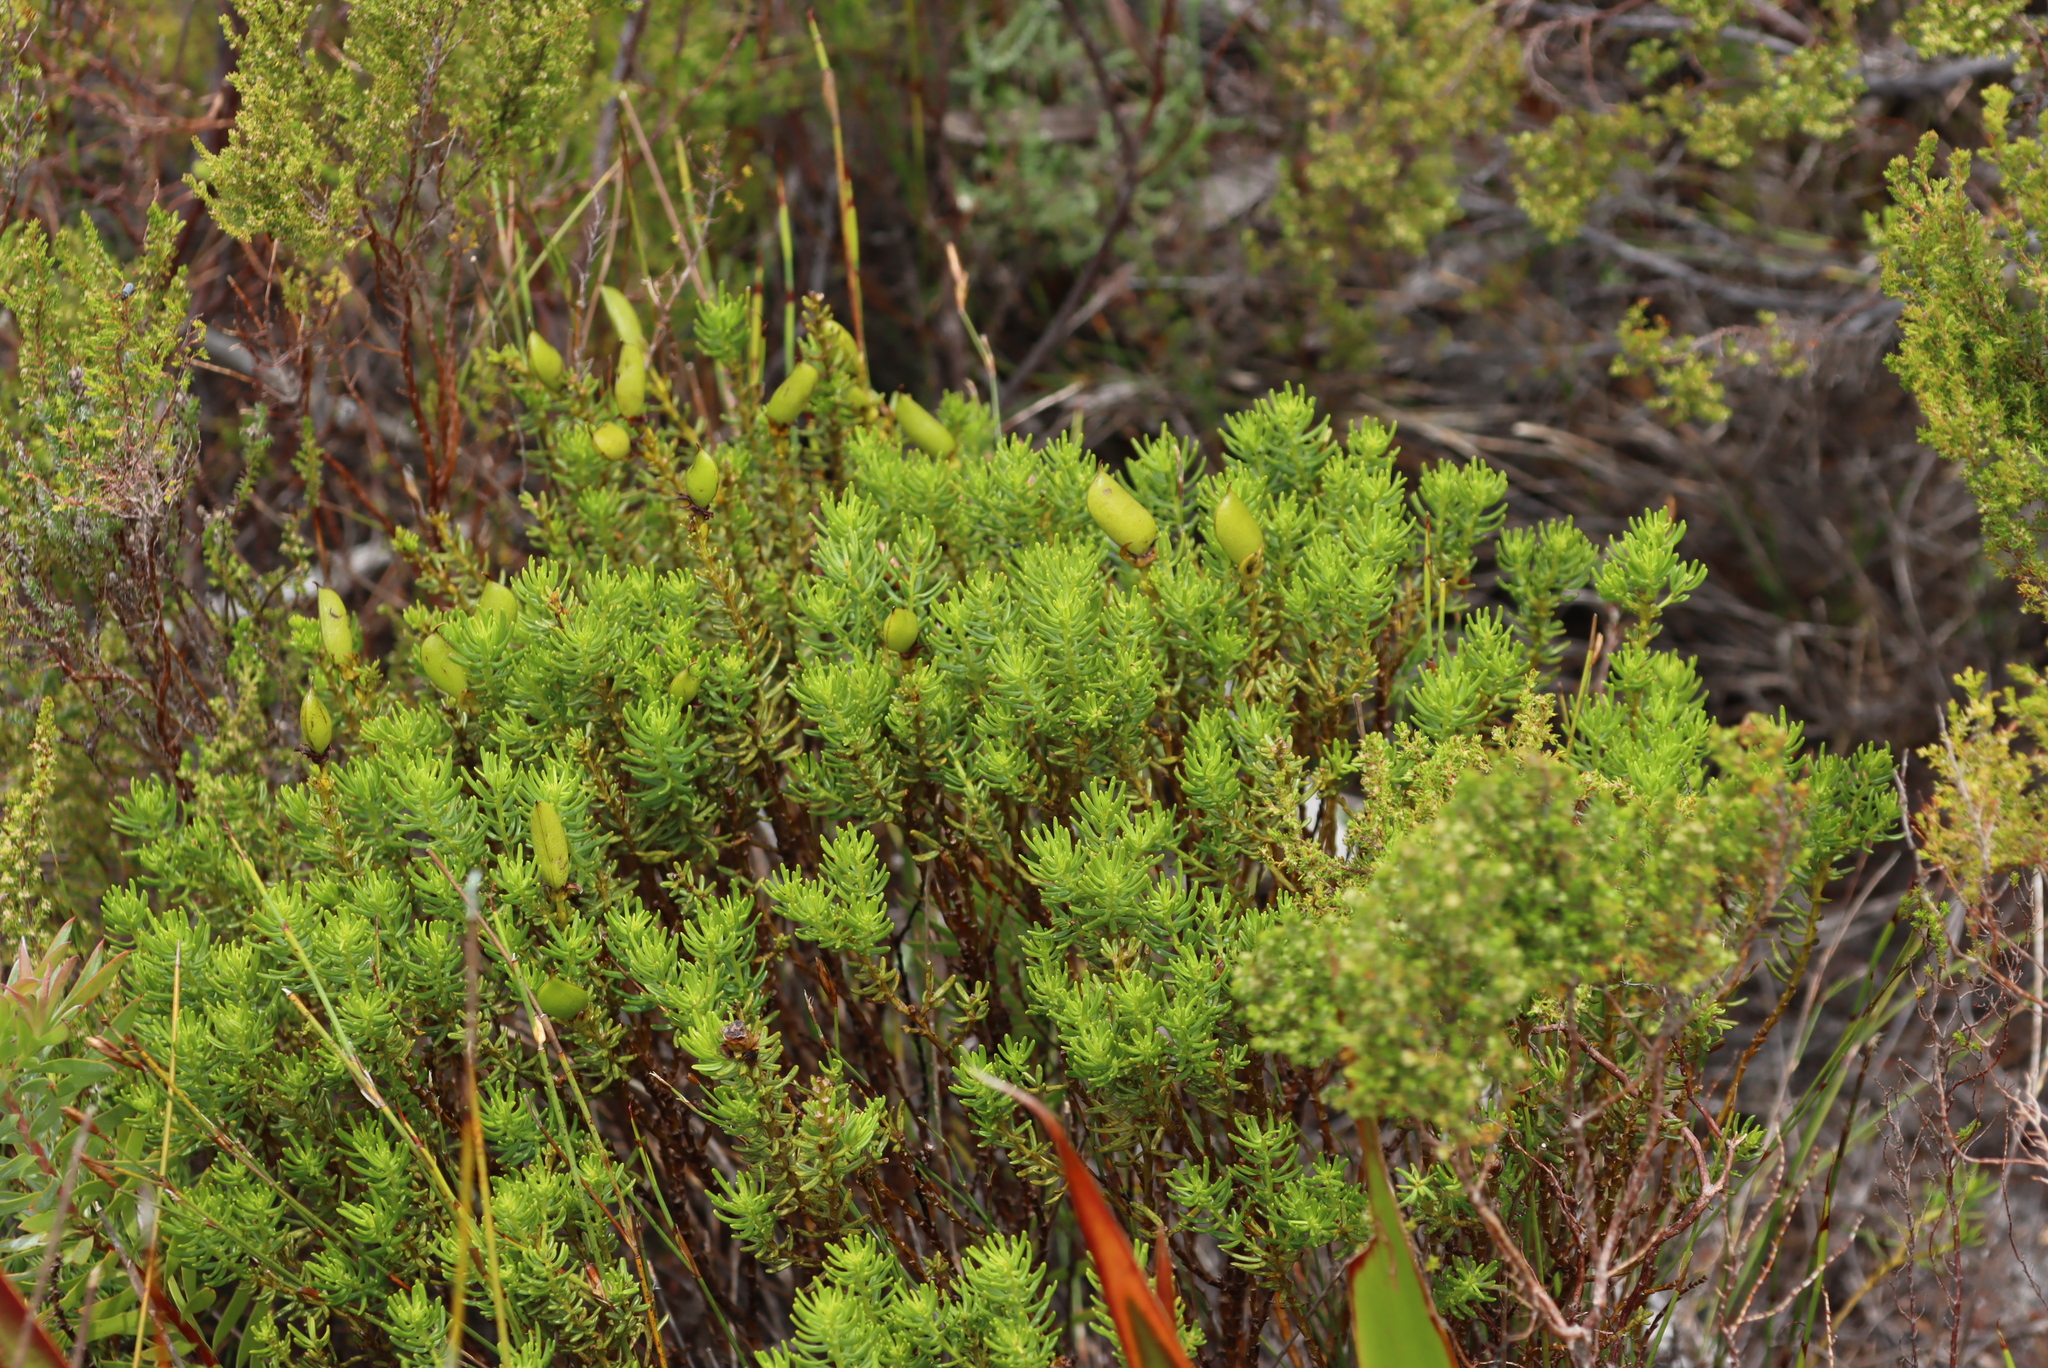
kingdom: Plantae
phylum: Tracheophyta
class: Magnoliopsida
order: Fabales
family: Fabaceae
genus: Cyclopia
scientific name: Cyclopia genistoides
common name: Honeybush tea
